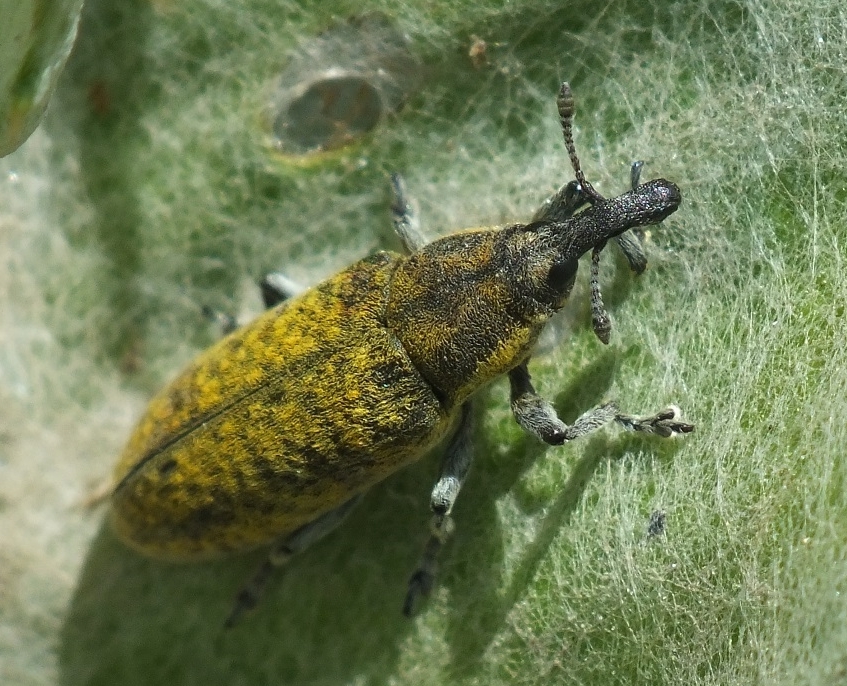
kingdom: Animalia
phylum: Arthropoda
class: Insecta
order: Coleoptera
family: Curculionidae
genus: Lixus
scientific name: Lixus cardui
